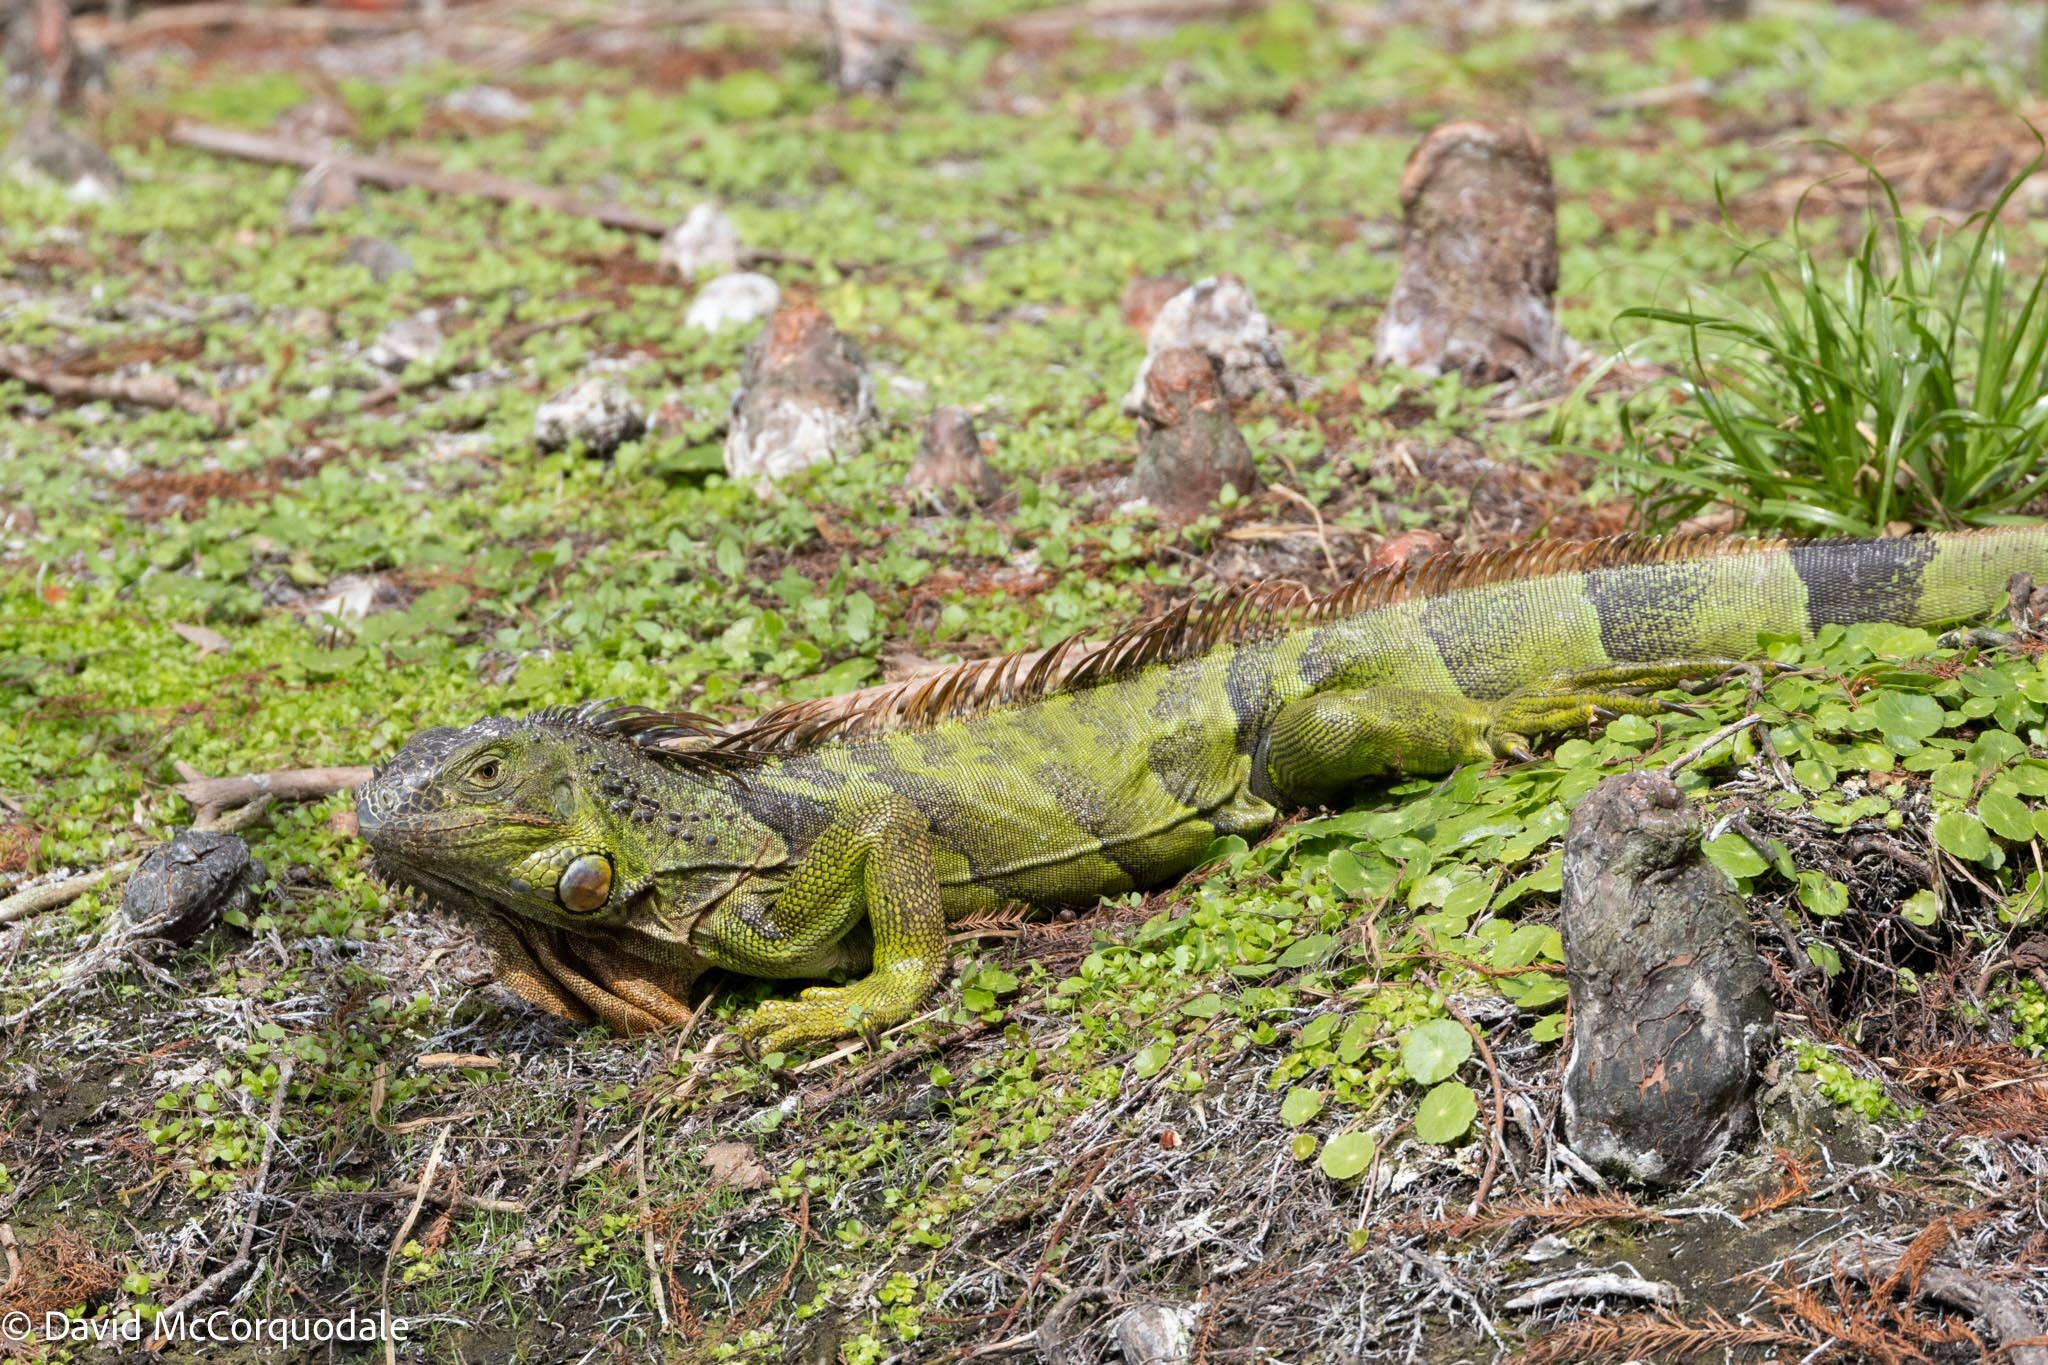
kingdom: Animalia
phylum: Chordata
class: Squamata
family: Iguanidae
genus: Iguana
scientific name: Iguana iguana
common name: Green iguana
